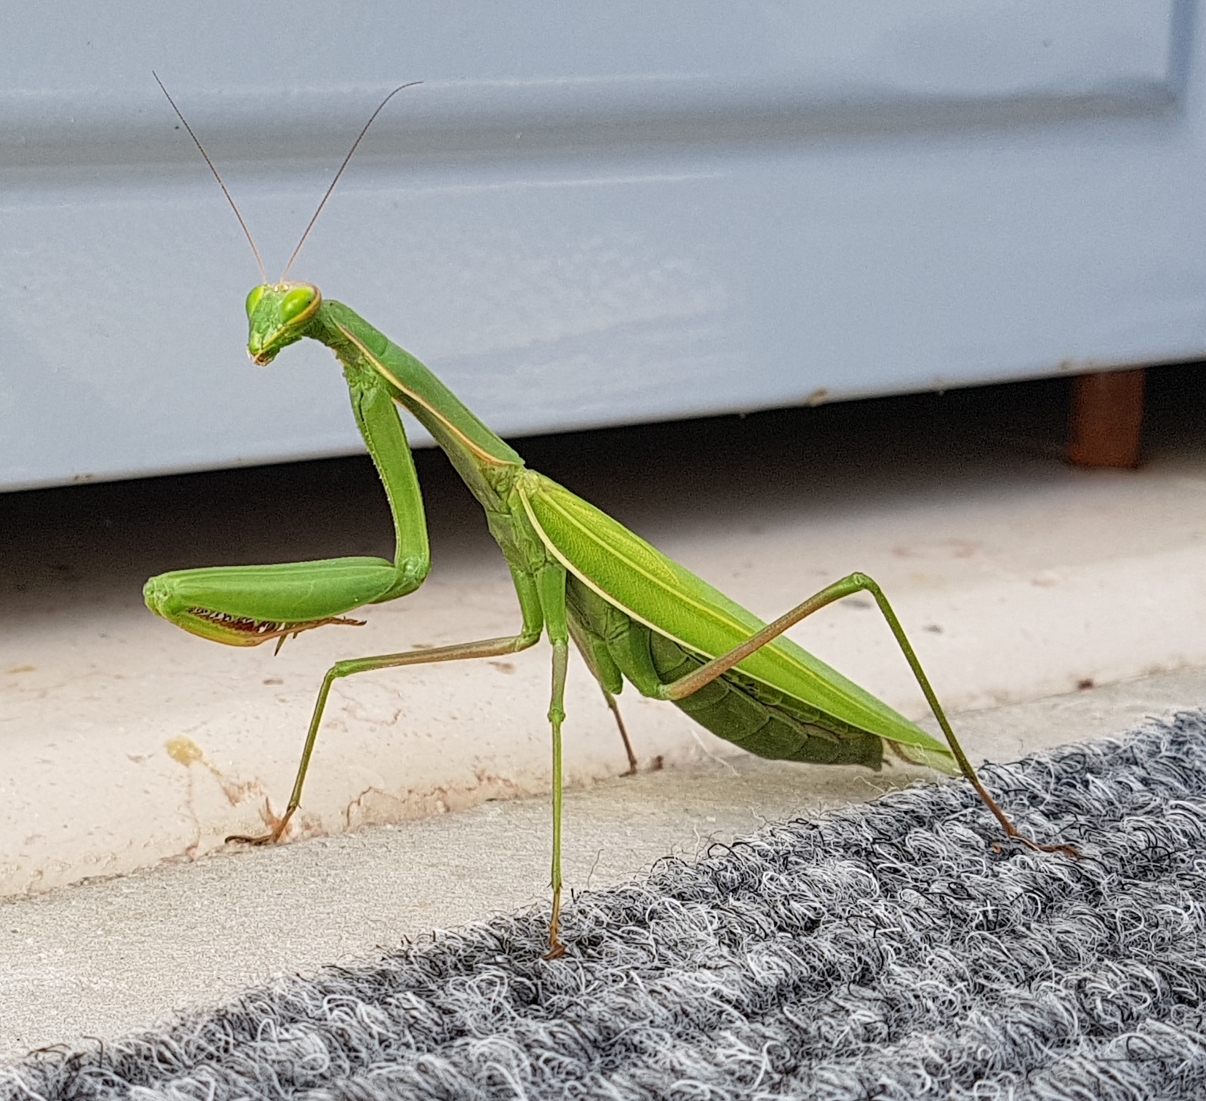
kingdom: Animalia
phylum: Arthropoda
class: Insecta
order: Mantodea
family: Mantidae
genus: Mantis
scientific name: Mantis religiosa
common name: Praying mantis
